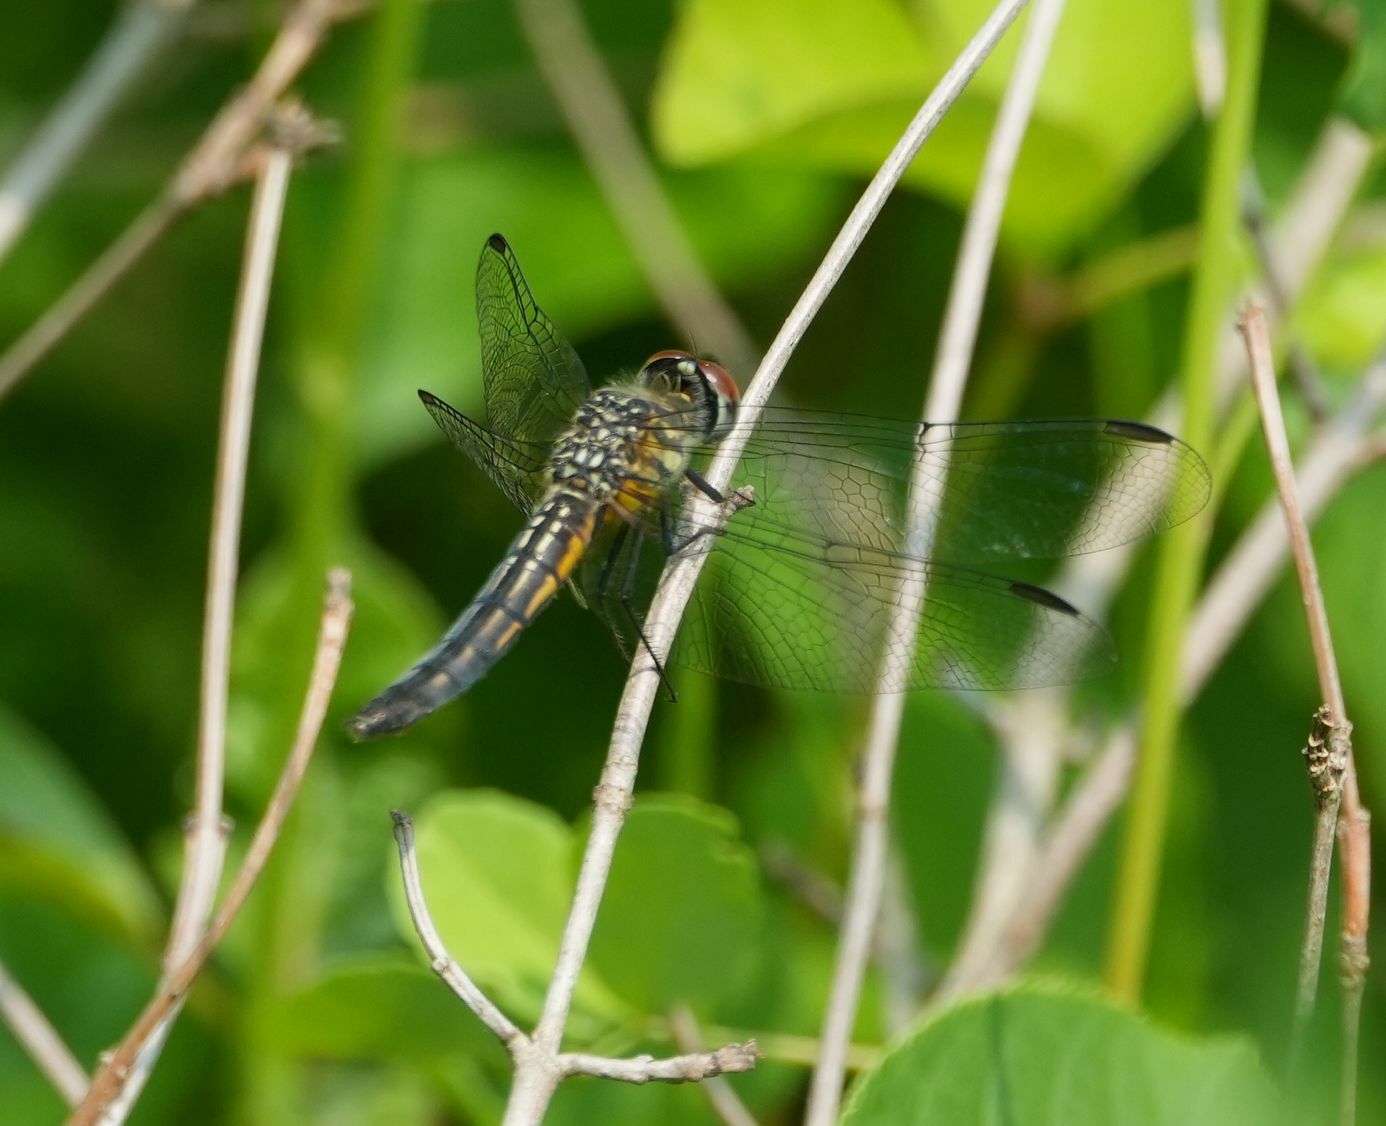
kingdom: Animalia
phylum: Arthropoda
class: Insecta
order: Odonata
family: Libellulidae
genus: Pachydiplax
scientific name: Pachydiplax longipennis
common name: Blue dasher
